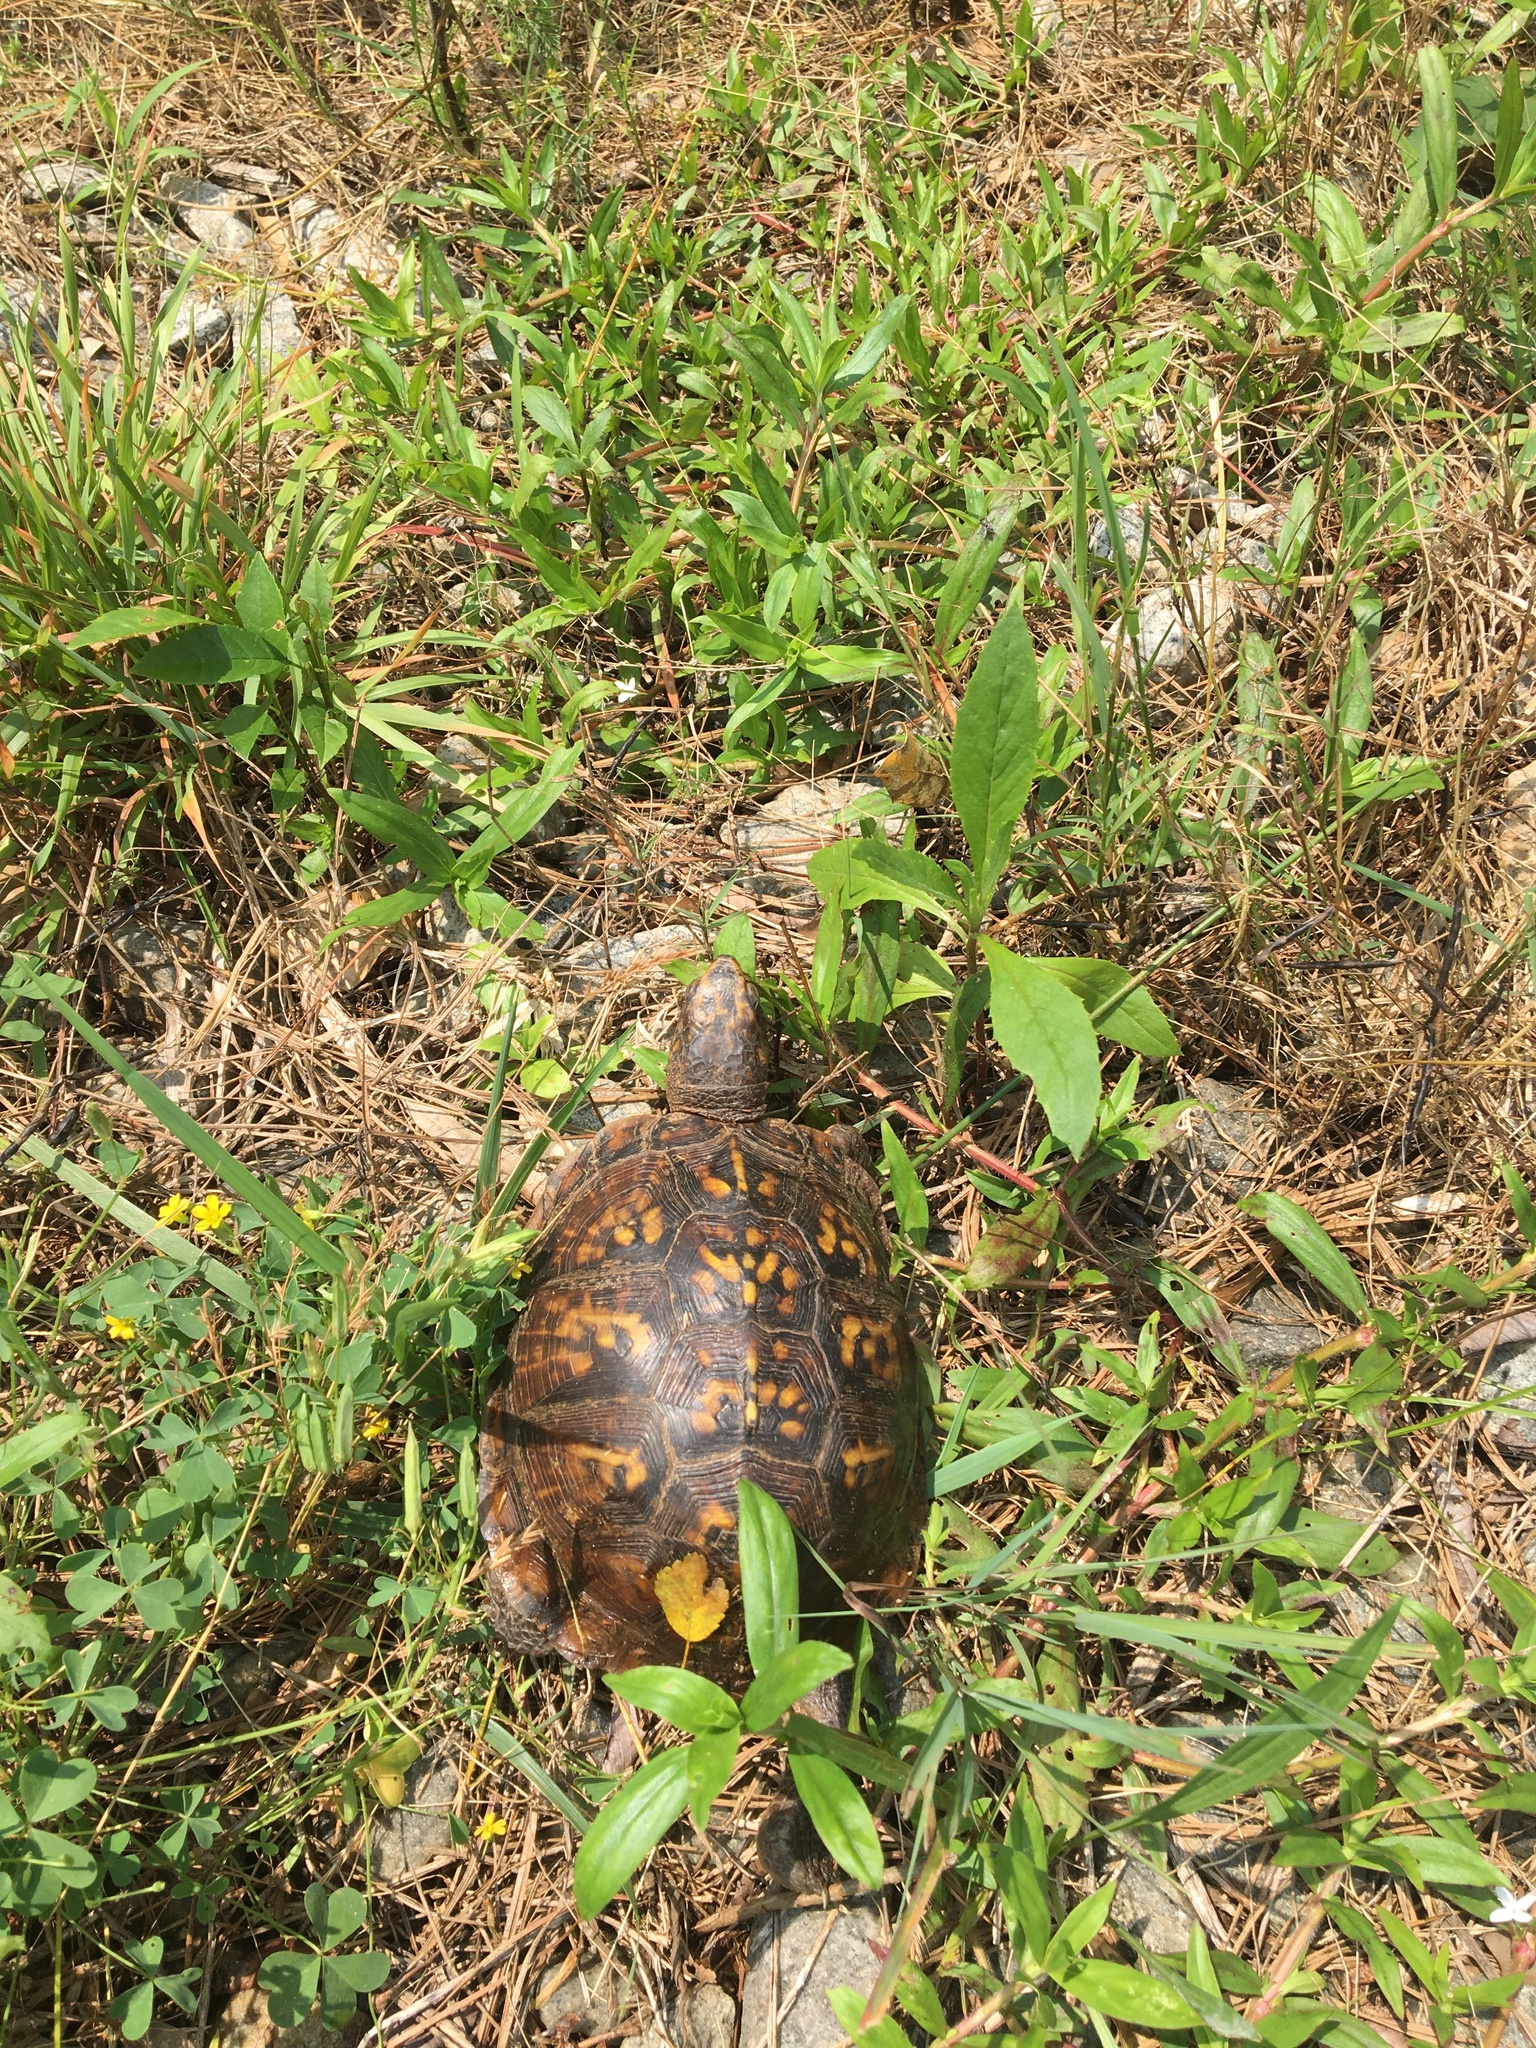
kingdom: Animalia
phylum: Chordata
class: Testudines
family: Emydidae
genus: Terrapene
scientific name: Terrapene carolina
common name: Common box turtle
